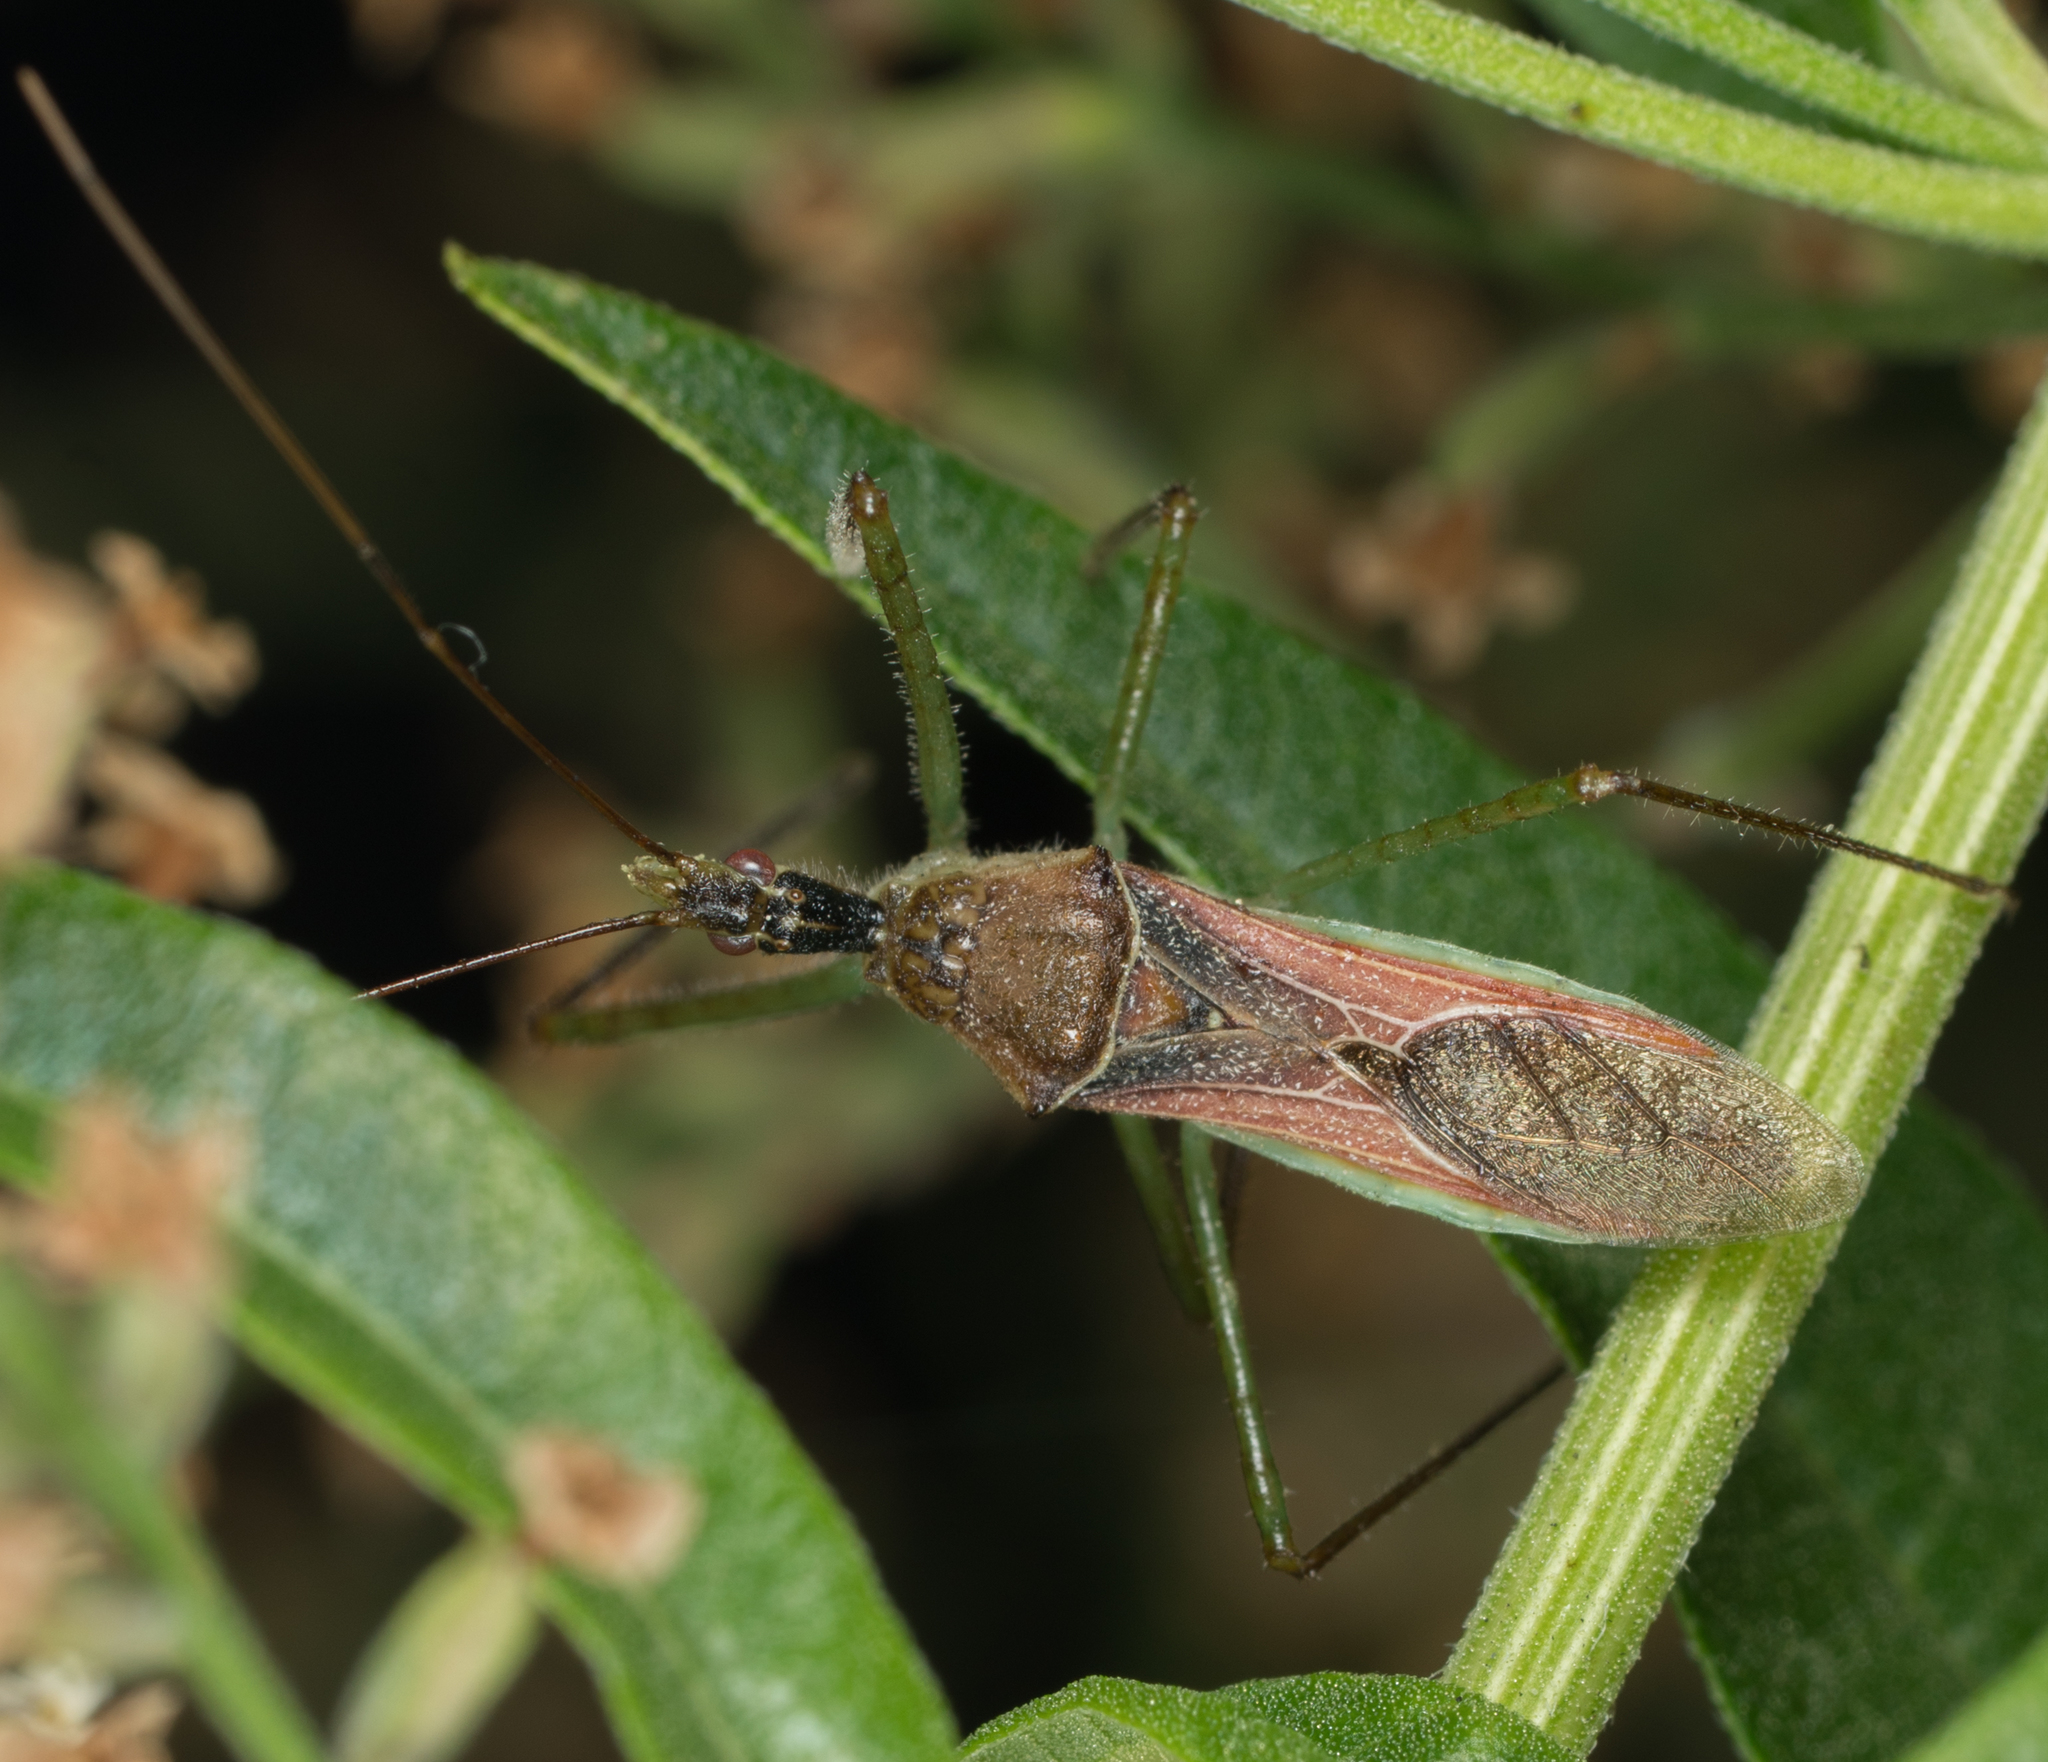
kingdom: Animalia
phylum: Arthropoda
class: Insecta
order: Hemiptera
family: Reduviidae
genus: Zelus
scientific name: Zelus renardii
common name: Assassin bug
